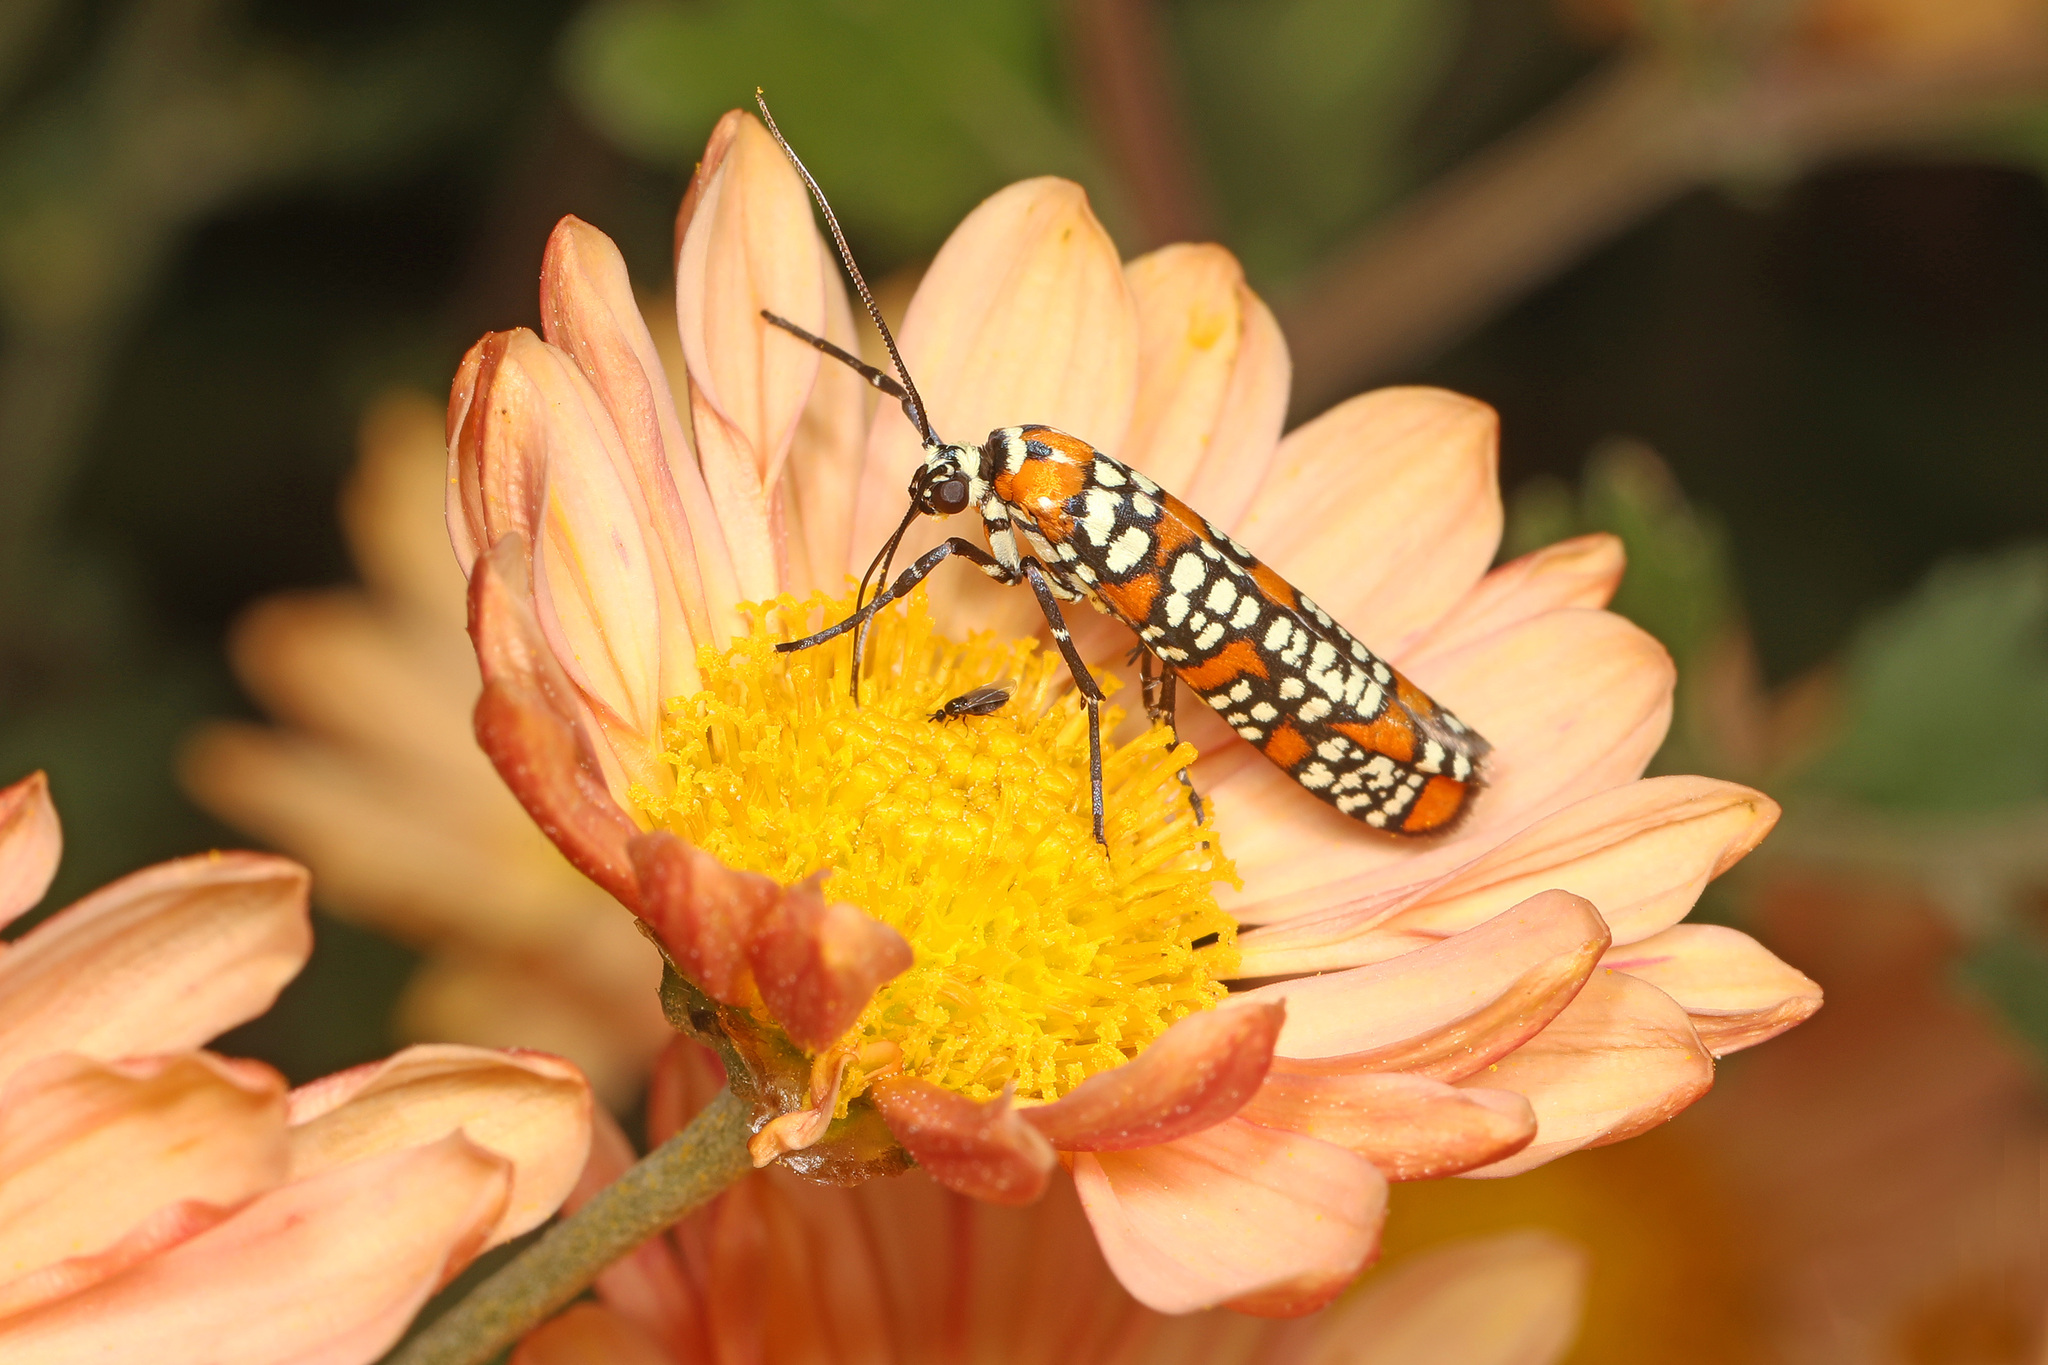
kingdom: Animalia
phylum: Arthropoda
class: Insecta
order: Lepidoptera
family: Attevidae
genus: Atteva
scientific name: Atteva punctella
